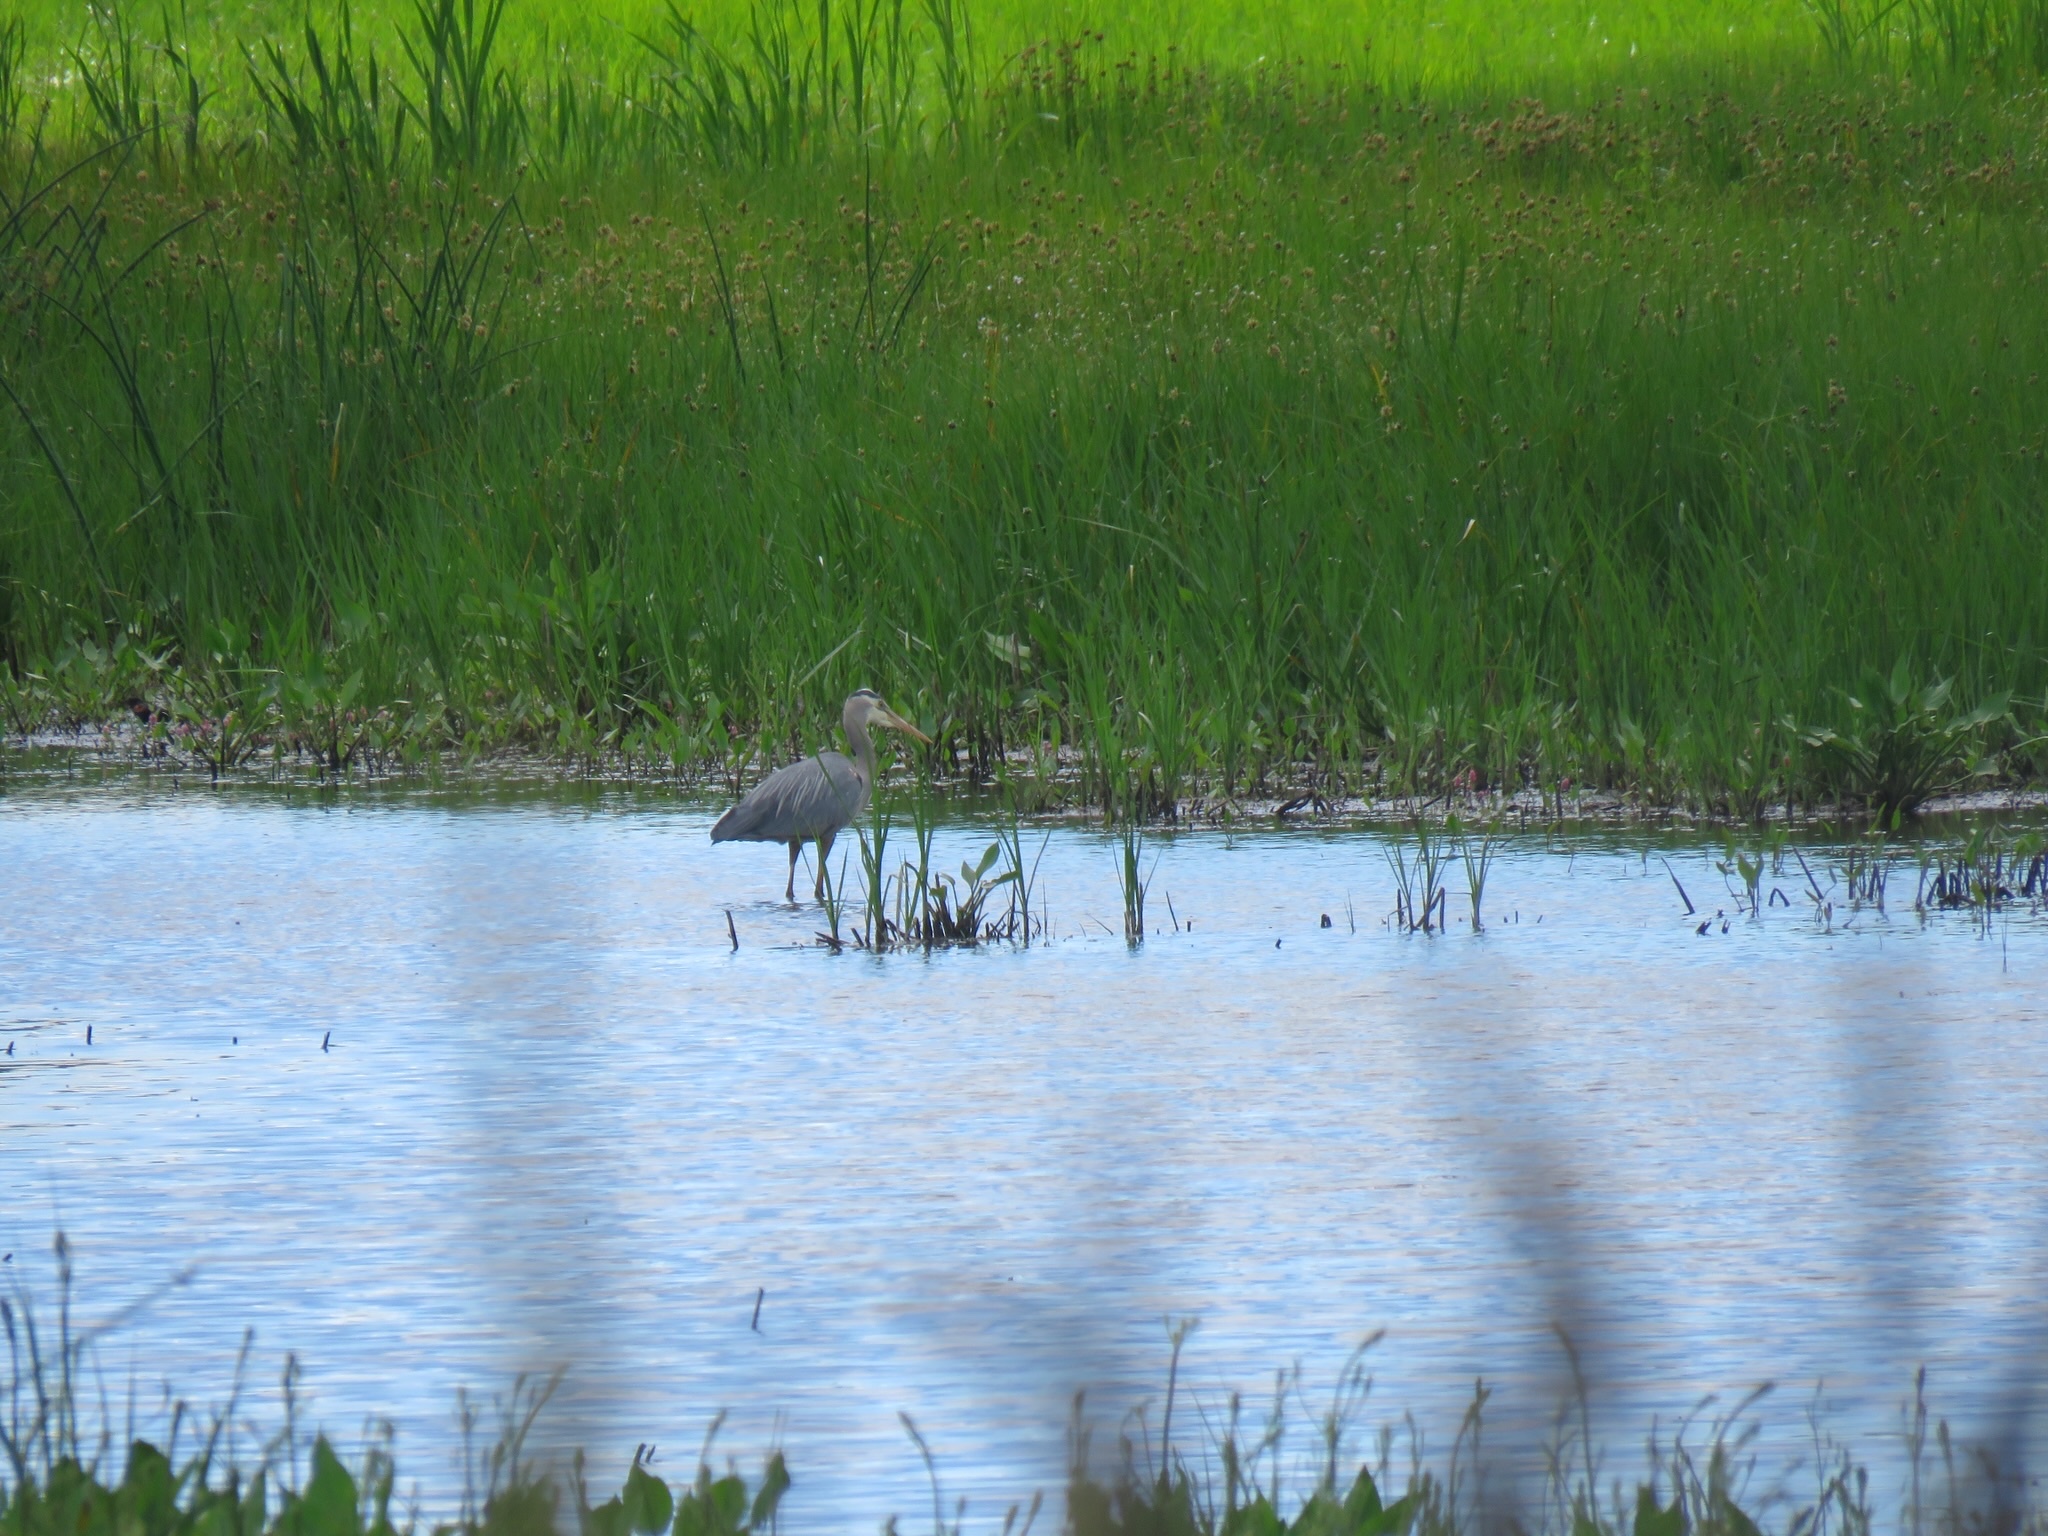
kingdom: Animalia
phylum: Chordata
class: Aves
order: Pelecaniformes
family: Ardeidae
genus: Ardea
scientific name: Ardea herodias
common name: Great blue heron
